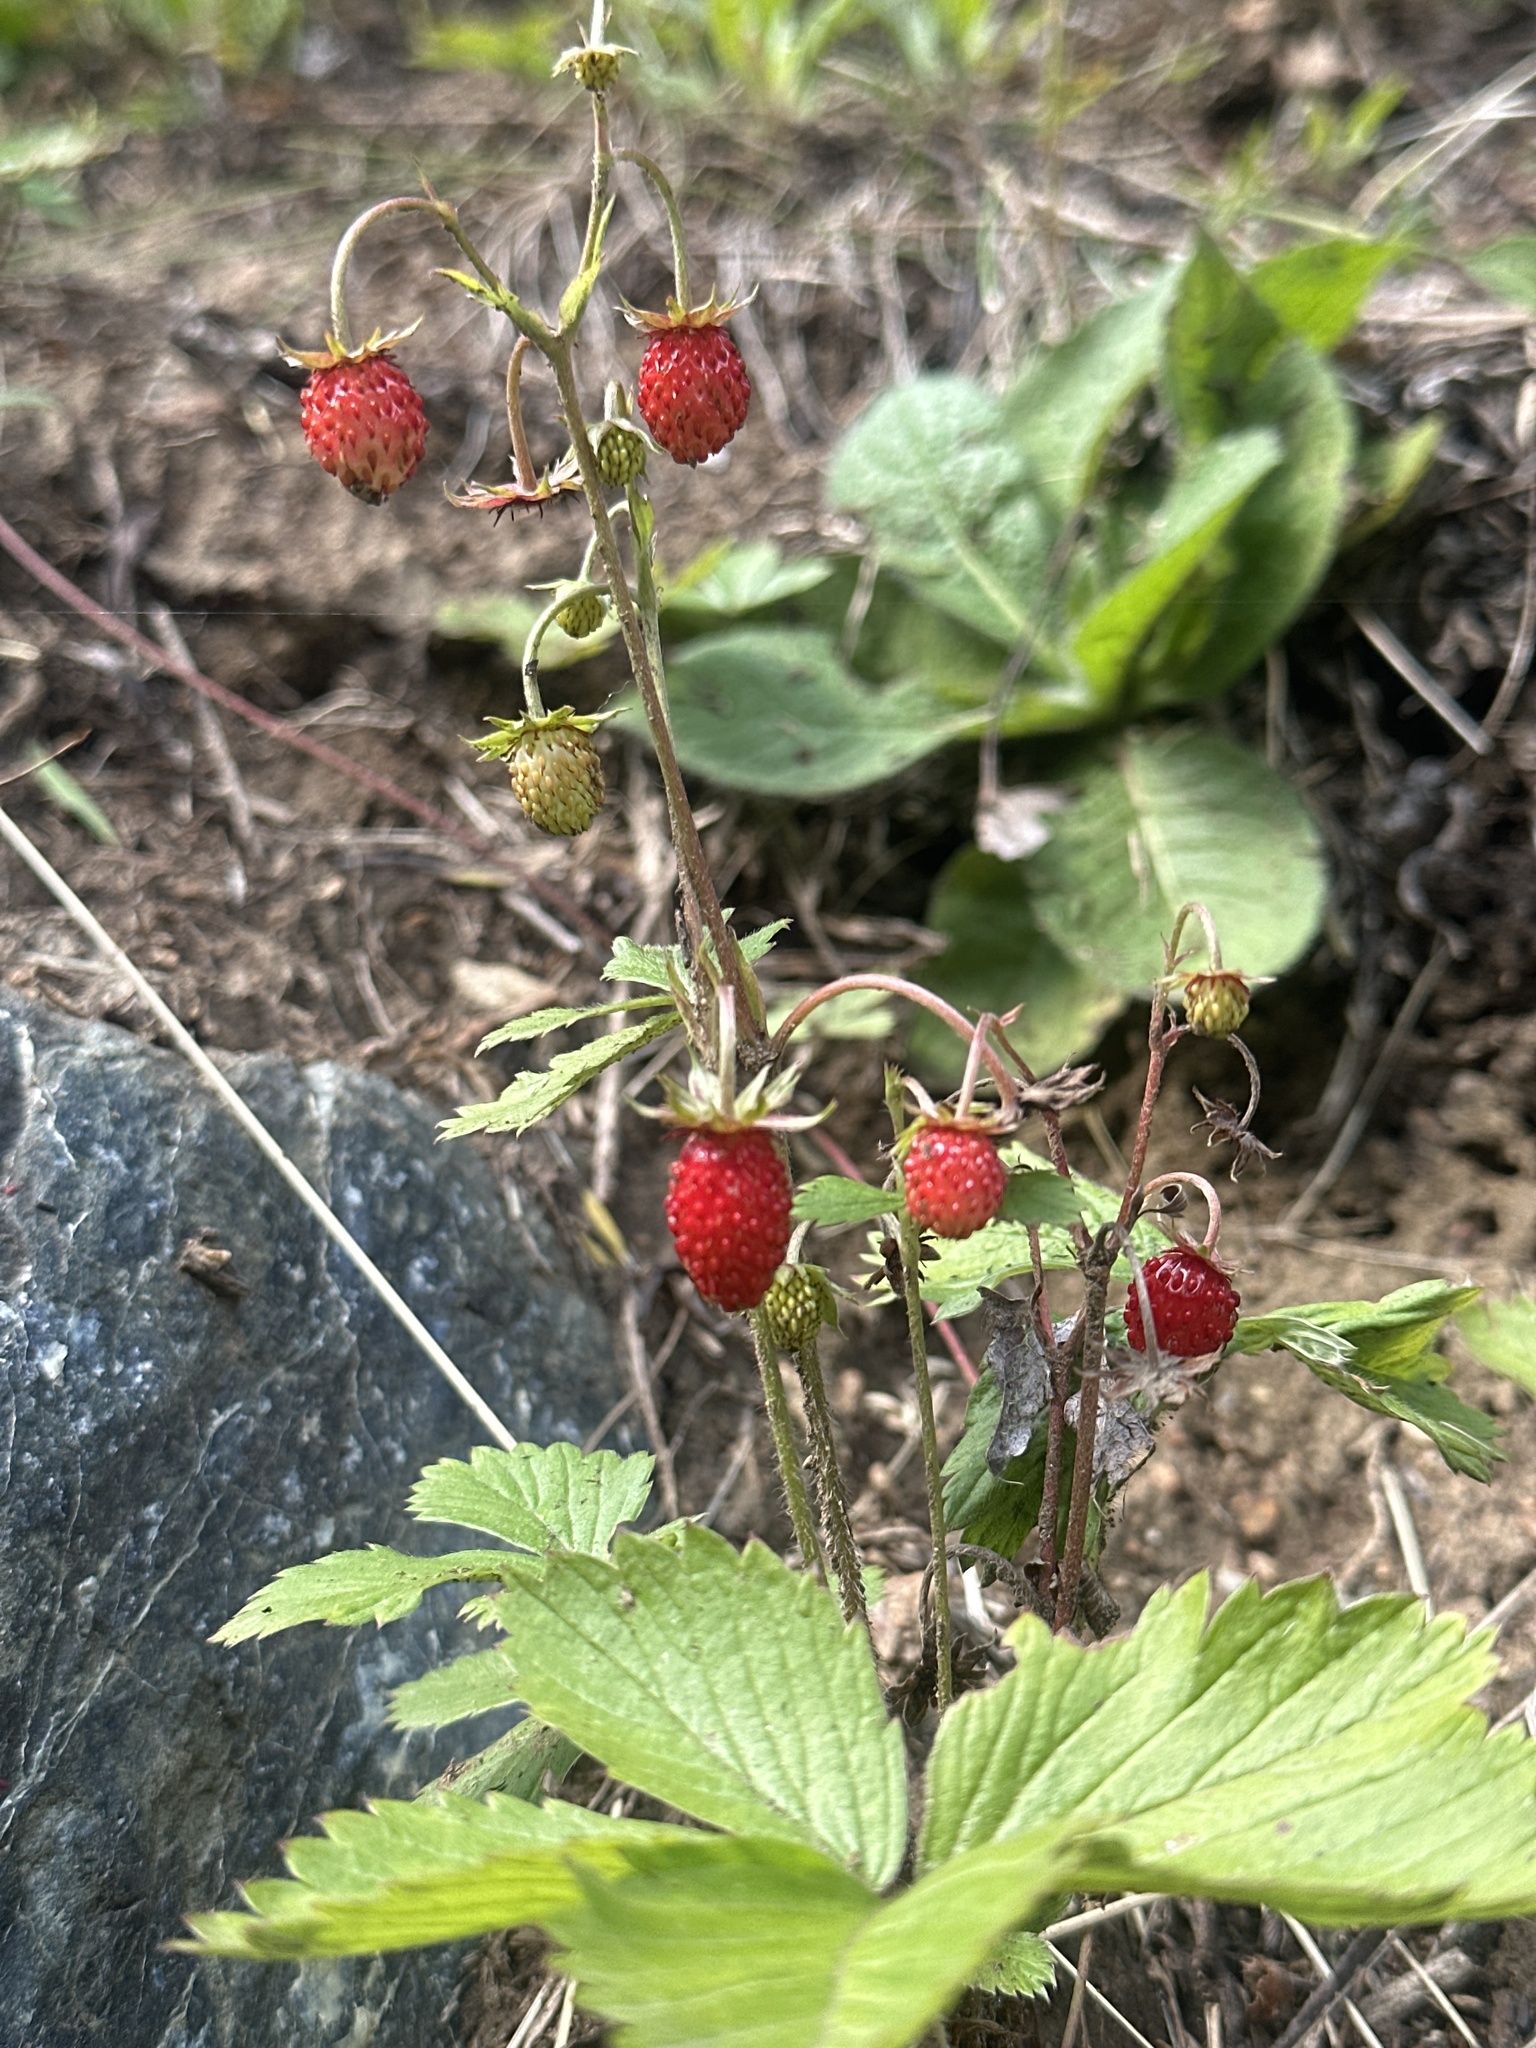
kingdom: Plantae
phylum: Tracheophyta
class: Magnoliopsida
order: Rosales
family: Rosaceae
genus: Fragaria
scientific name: Fragaria vesca
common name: Wild strawberry
